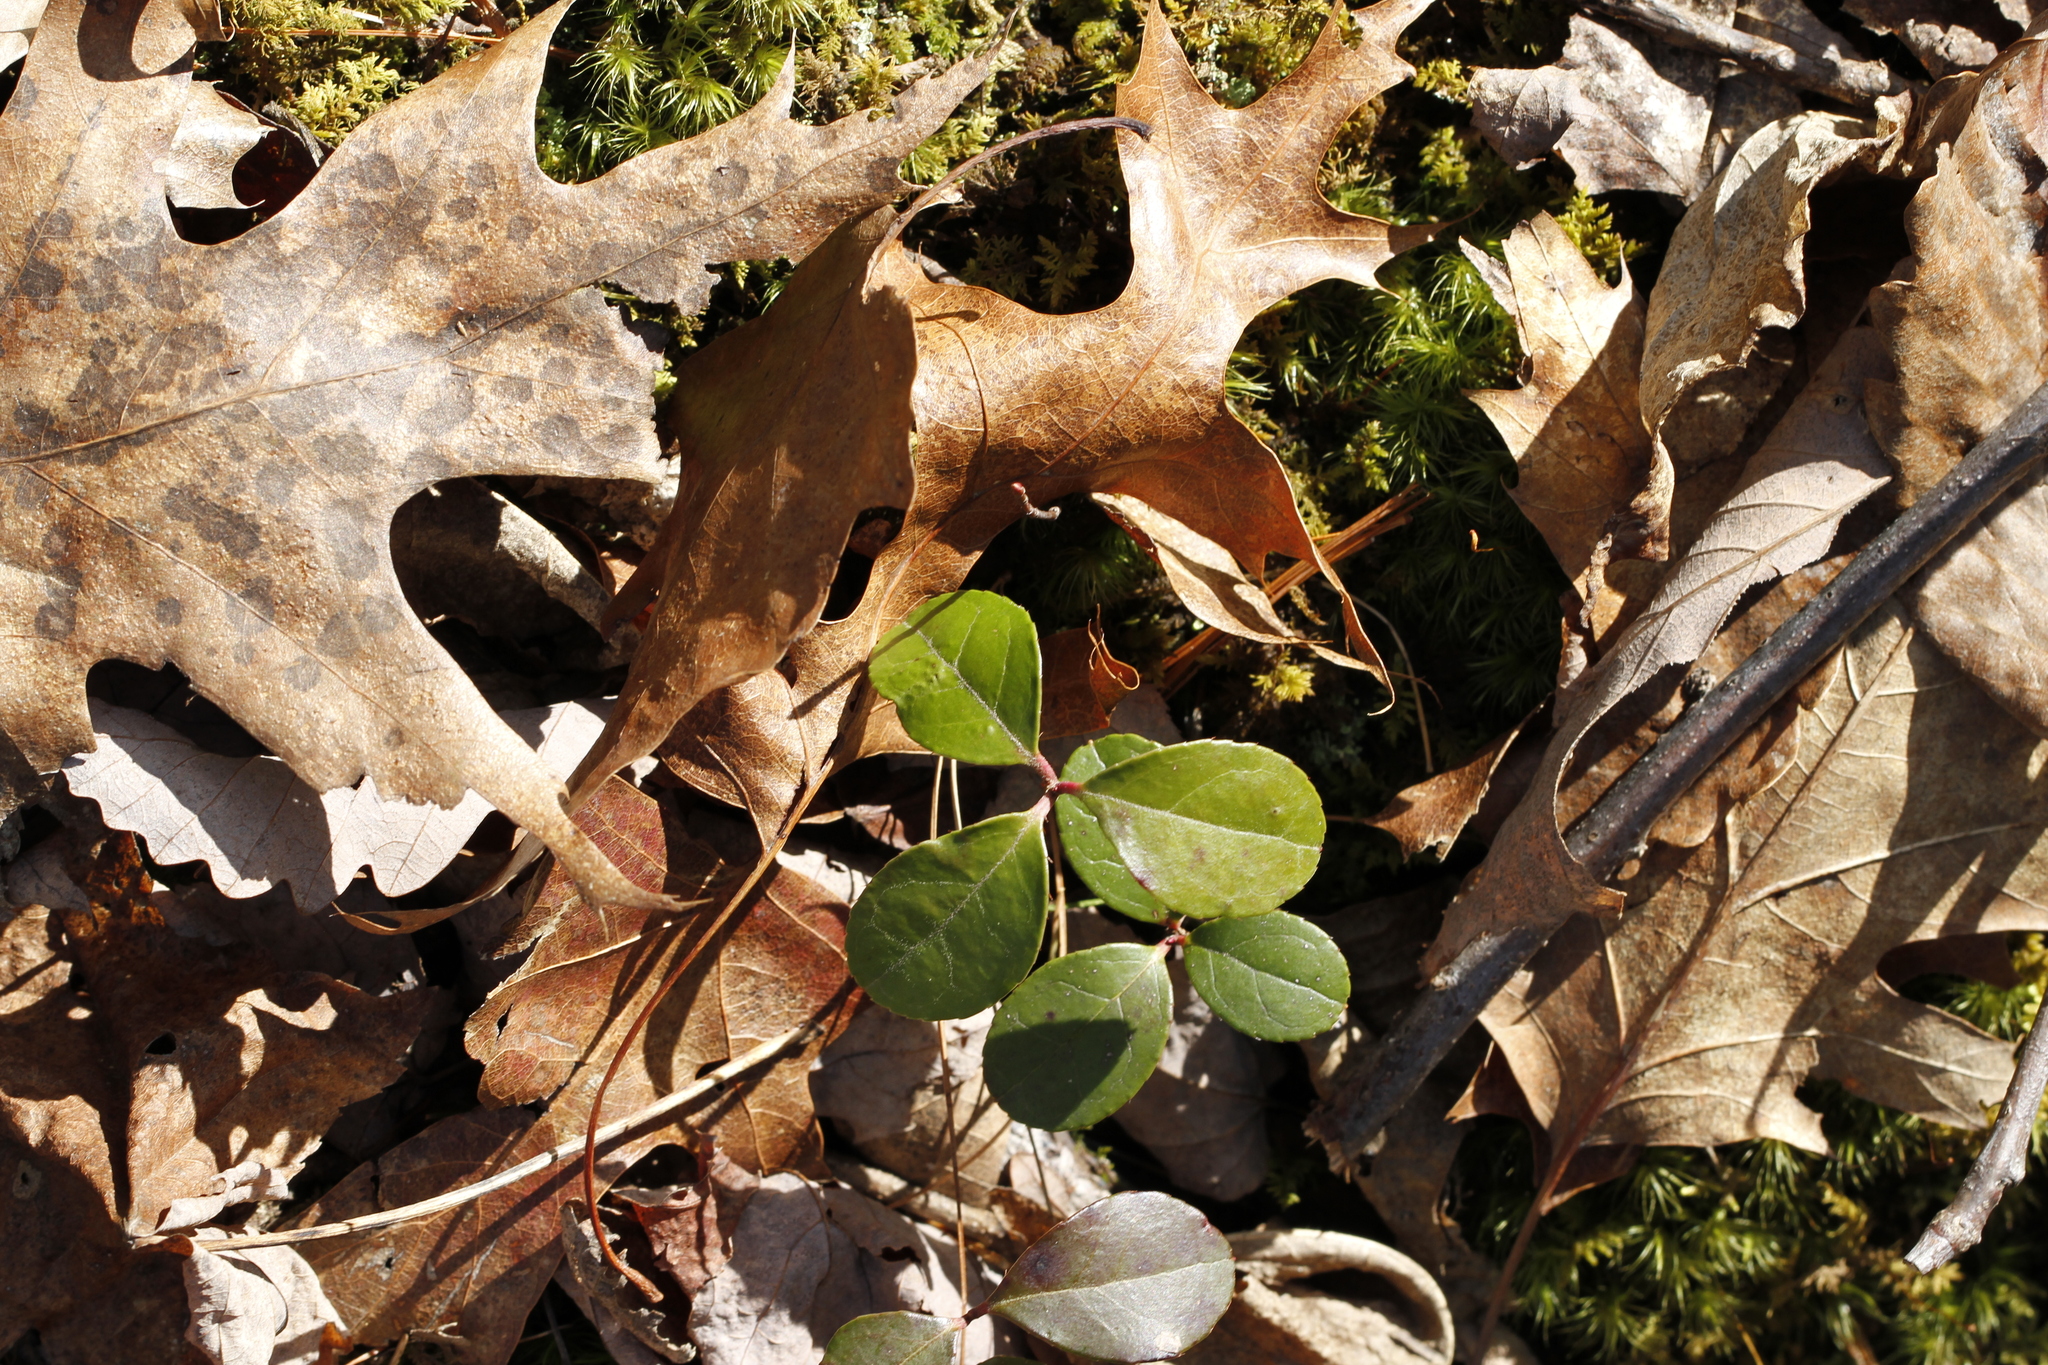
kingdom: Plantae
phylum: Tracheophyta
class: Magnoliopsida
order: Ericales
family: Ericaceae
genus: Gaultheria
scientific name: Gaultheria procumbens
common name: Checkerberry
